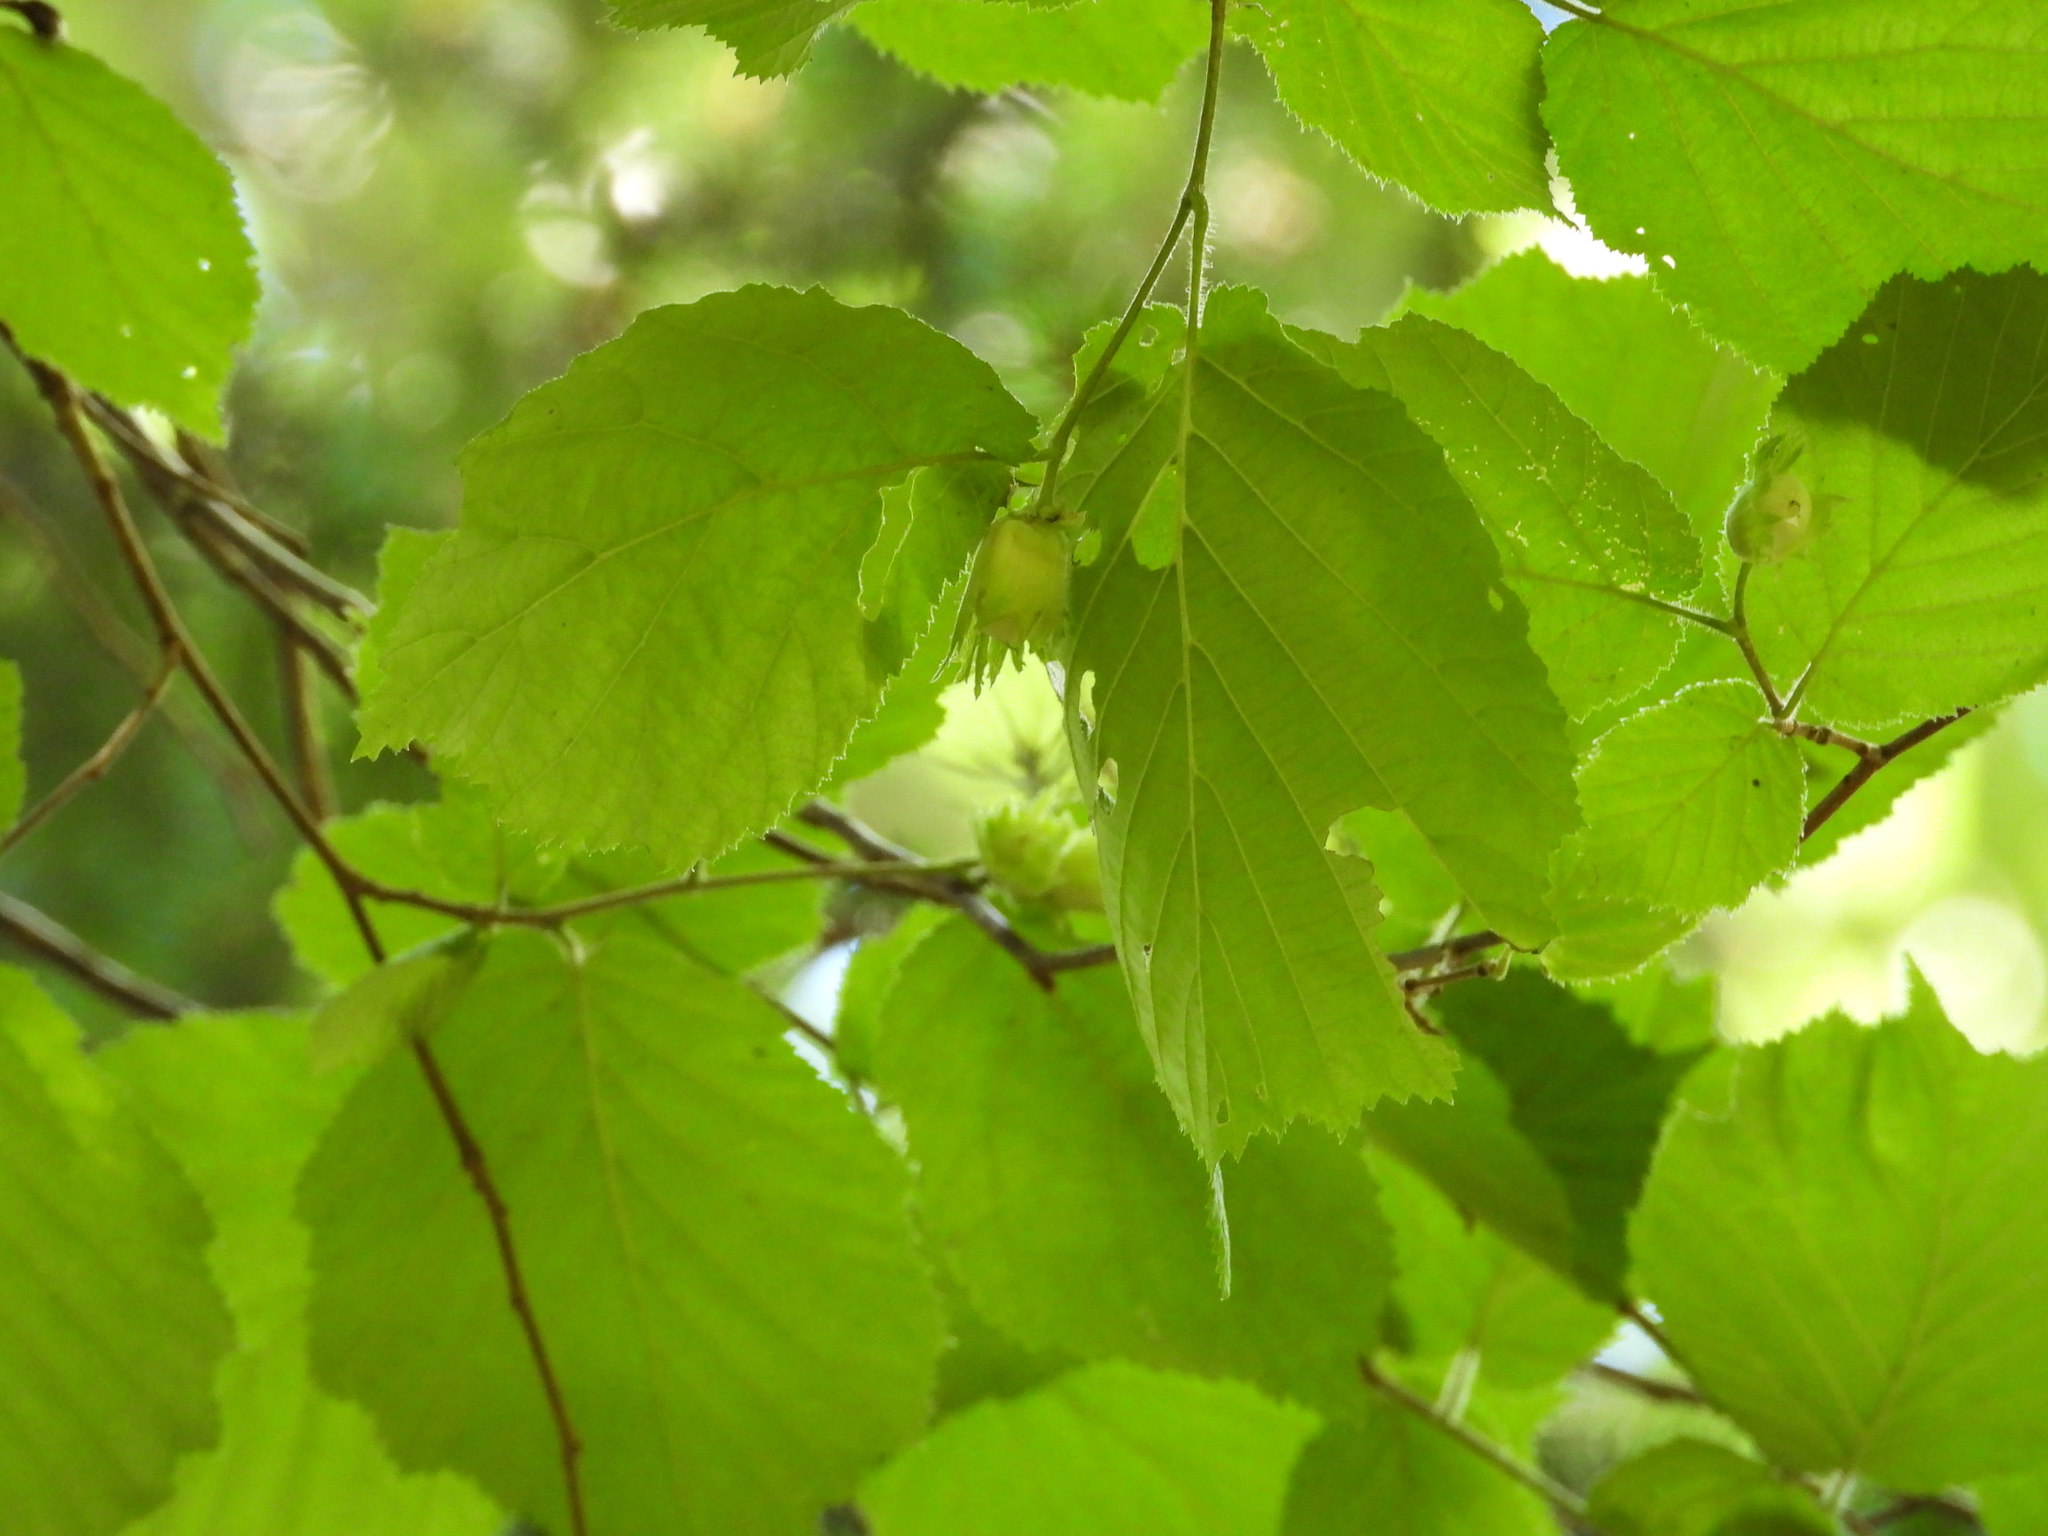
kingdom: Plantae
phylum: Tracheophyta
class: Magnoliopsida
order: Fagales
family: Betulaceae
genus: Corylus
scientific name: Corylus avellana
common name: European hazel
